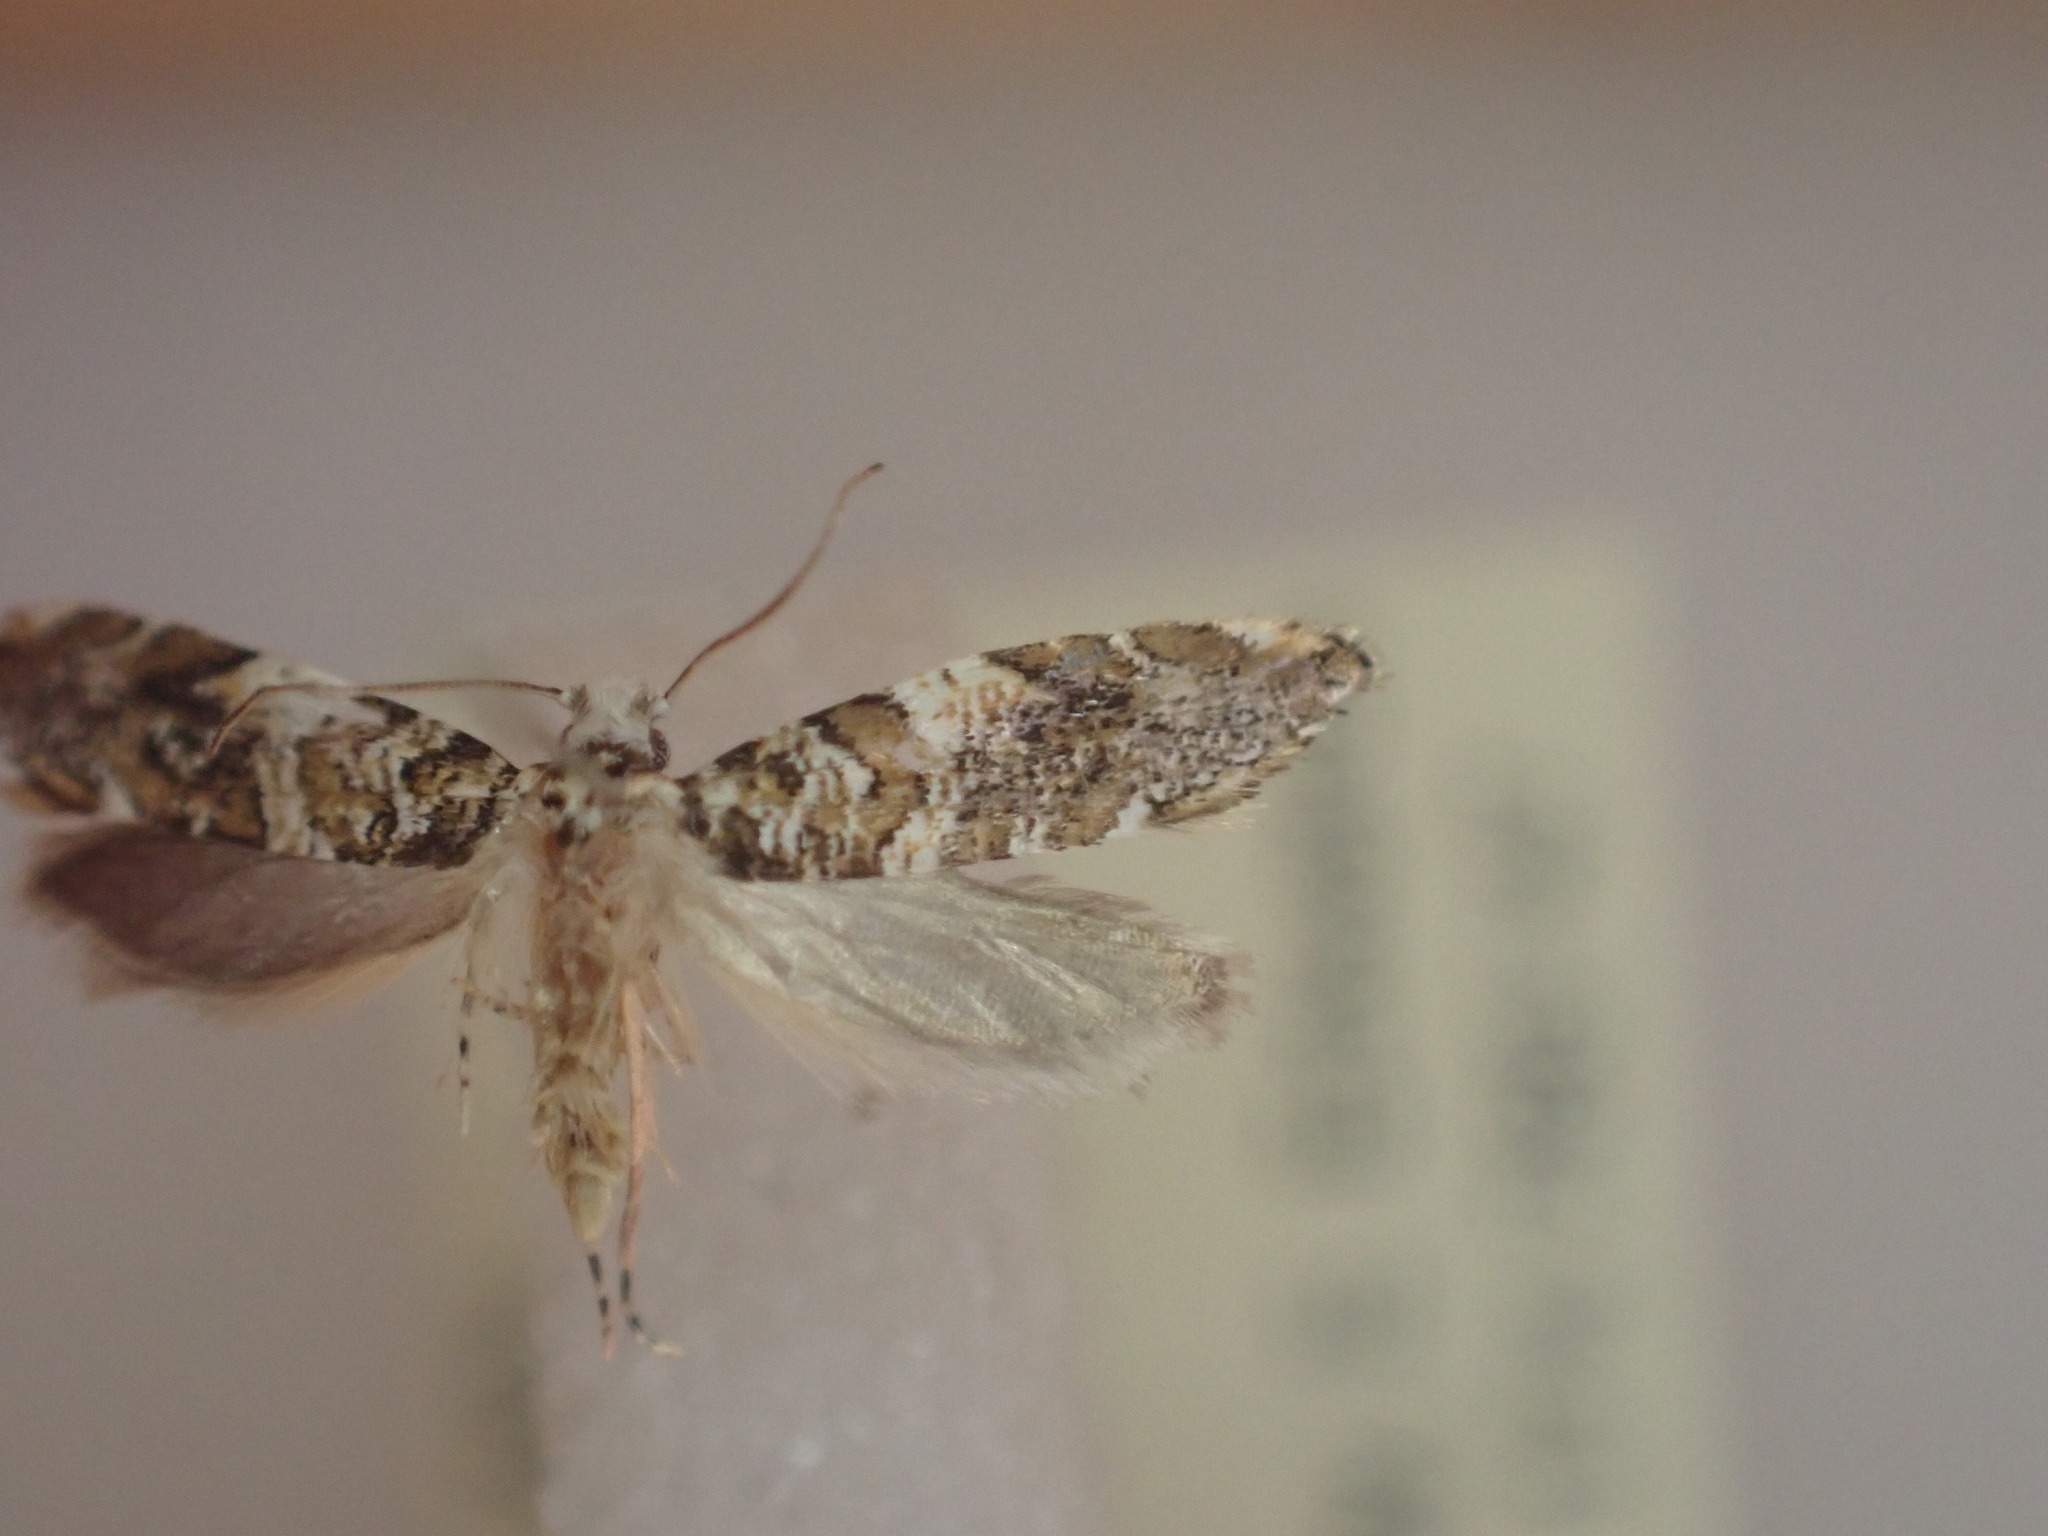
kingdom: Animalia
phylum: Arthropoda
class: Insecta
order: Lepidoptera
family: Tineidae
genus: Eschatotypa
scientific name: Eschatotypa derogatella
